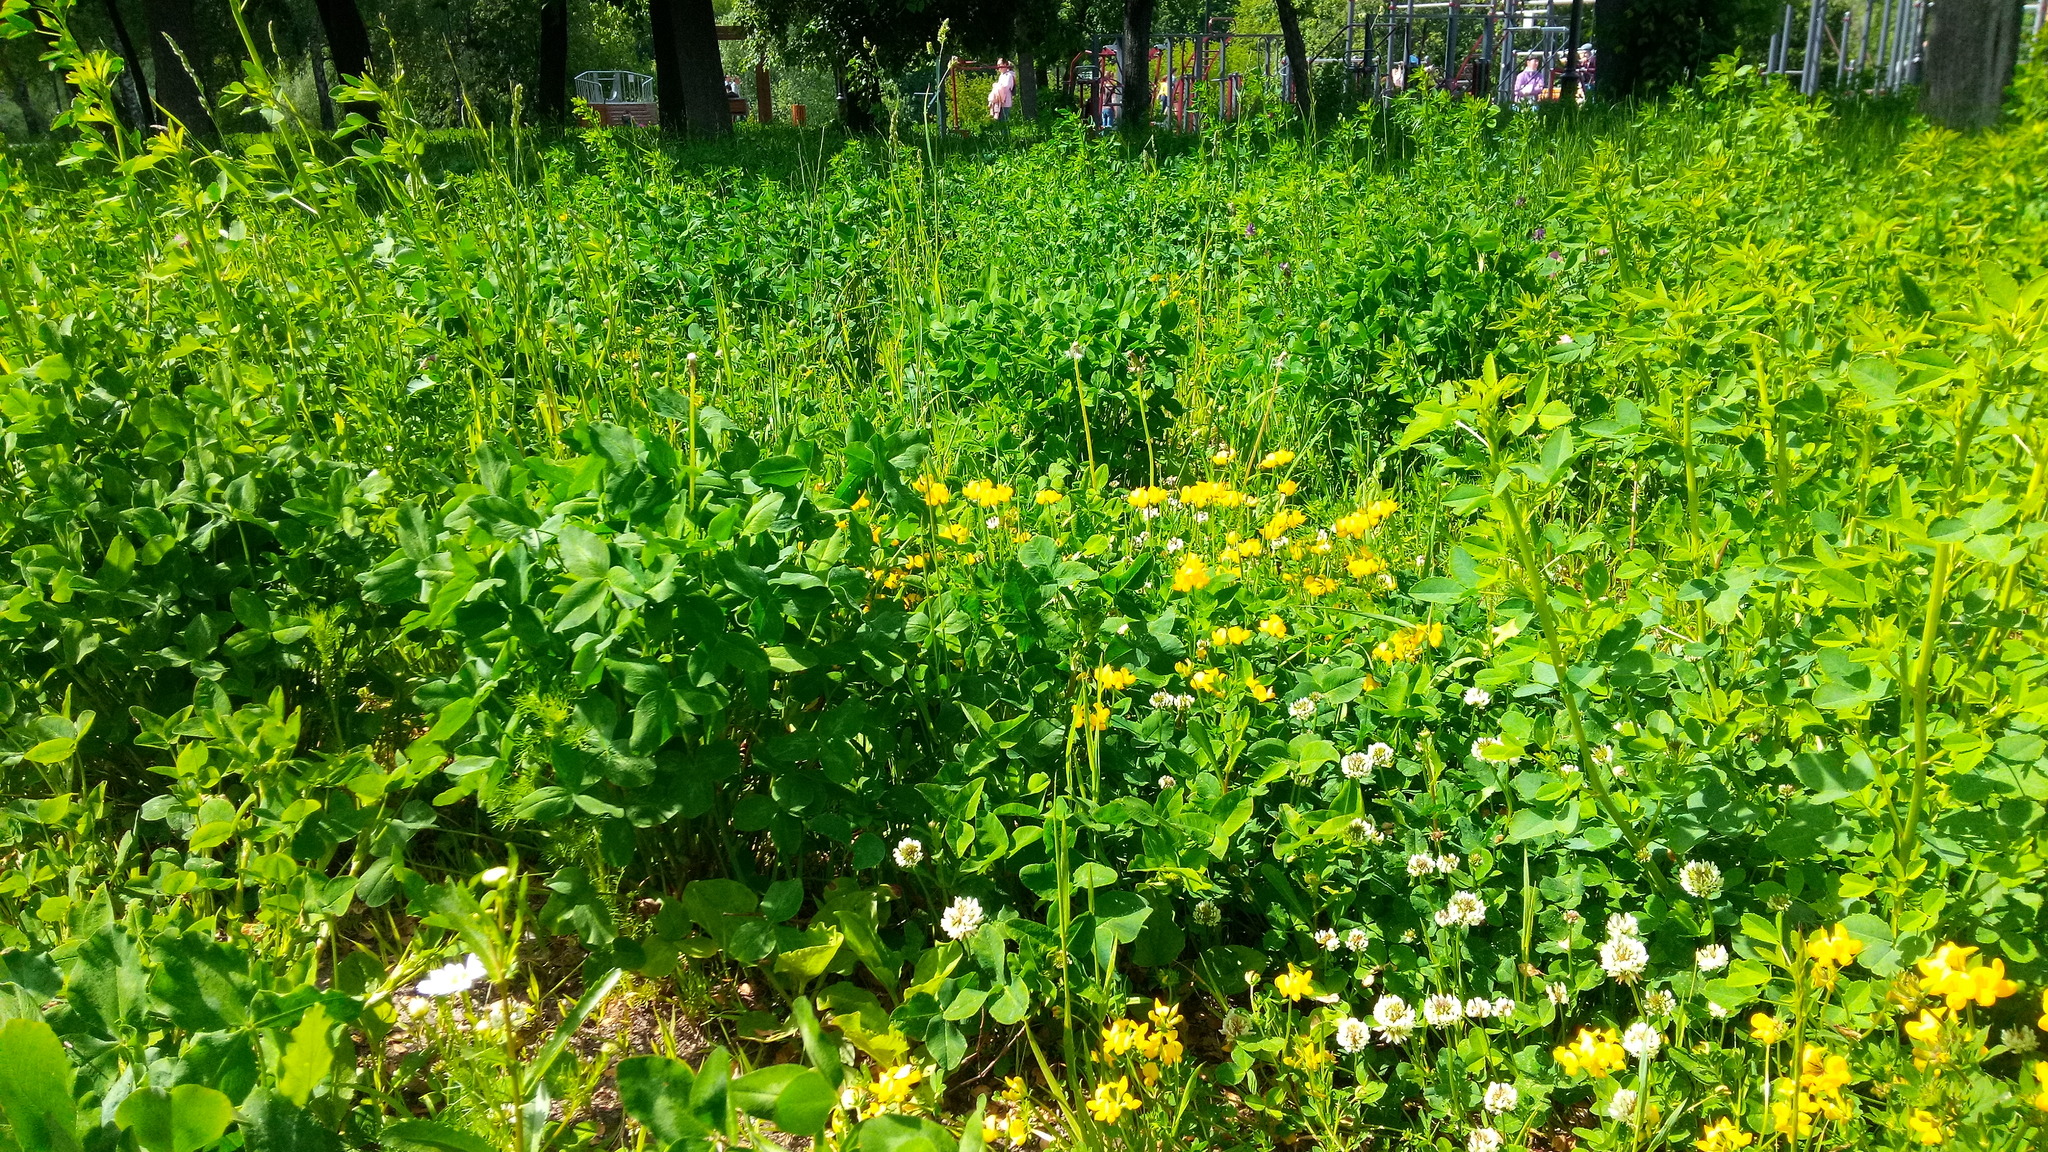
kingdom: Plantae
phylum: Tracheophyta
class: Magnoliopsida
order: Fabales
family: Fabaceae
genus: Trifolium
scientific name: Trifolium repens
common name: White clover
